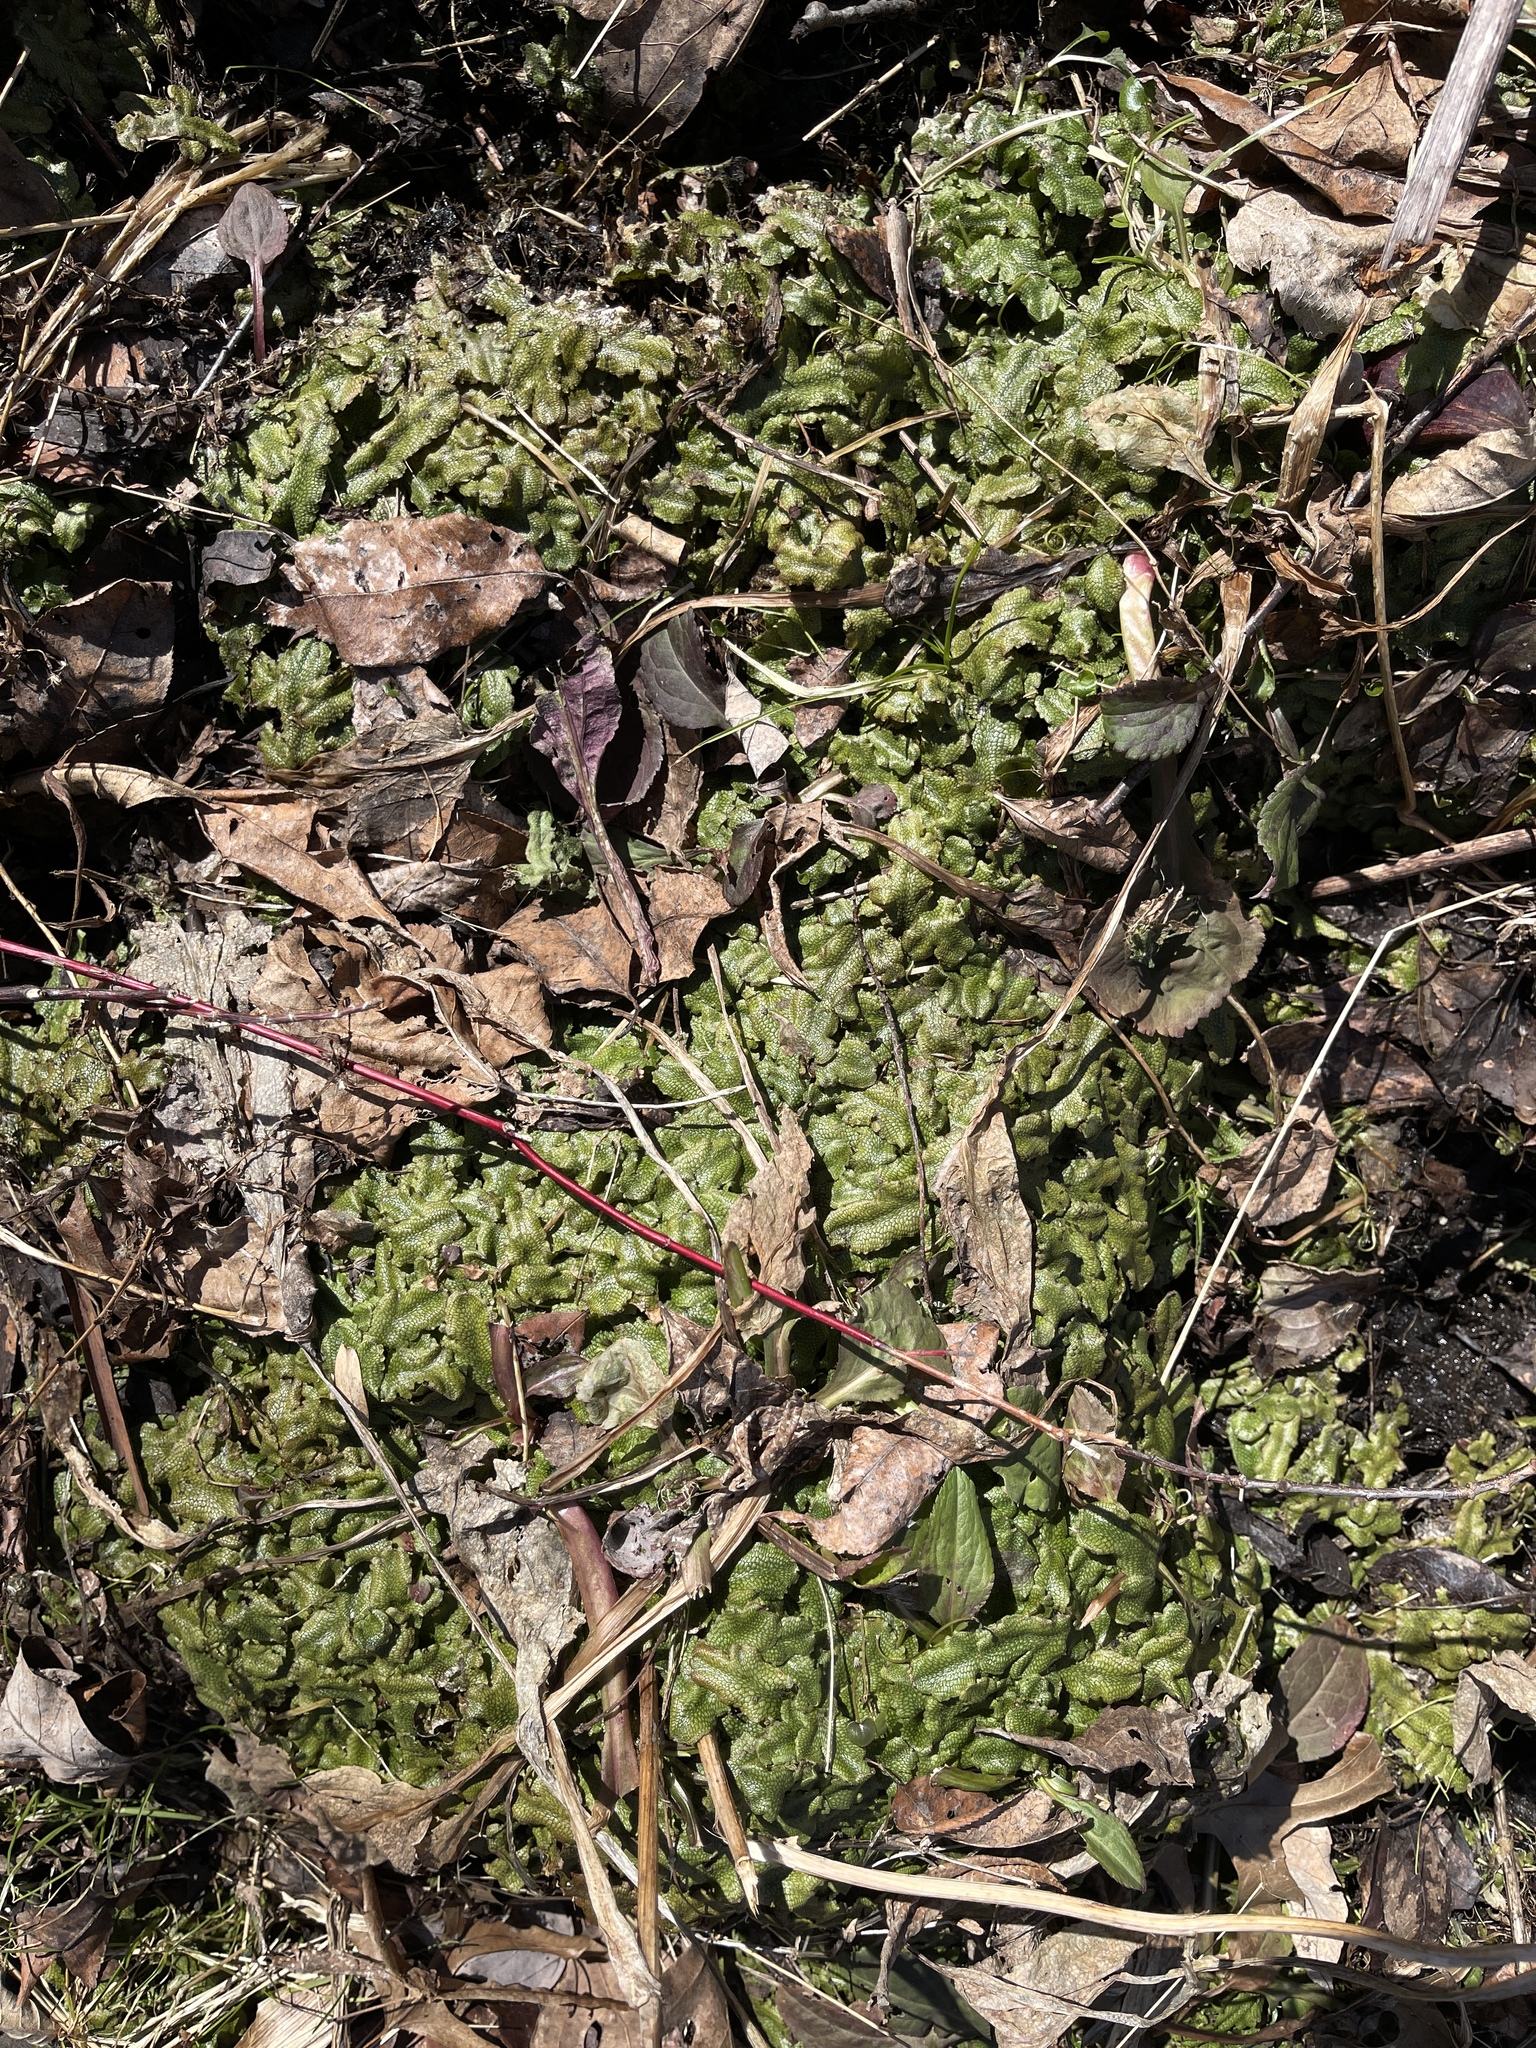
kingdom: Plantae
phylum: Marchantiophyta
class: Marchantiopsida
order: Marchantiales
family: Conocephalaceae
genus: Conocephalum
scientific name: Conocephalum salebrosum
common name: Cat-tongue liverwort
